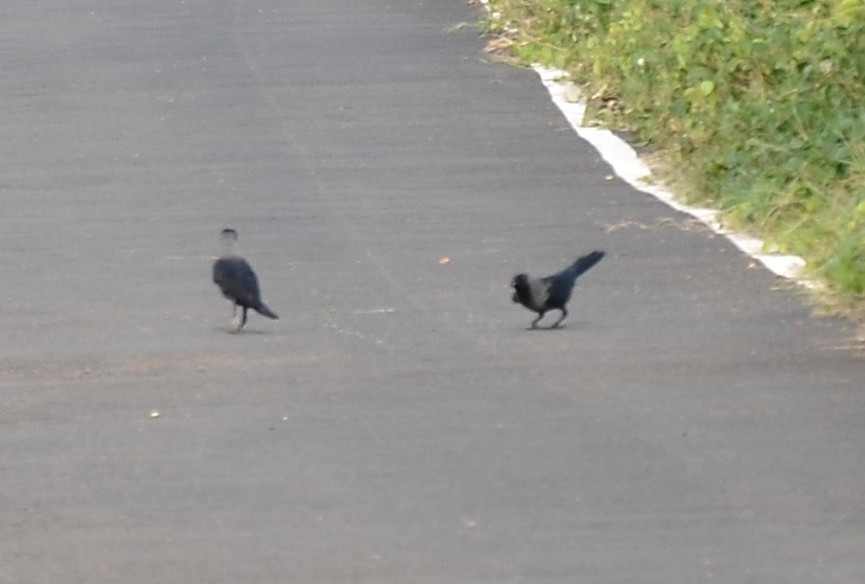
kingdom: Animalia
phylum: Chordata
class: Aves
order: Passeriformes
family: Corvidae
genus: Corvus
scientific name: Corvus splendens
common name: House crow
